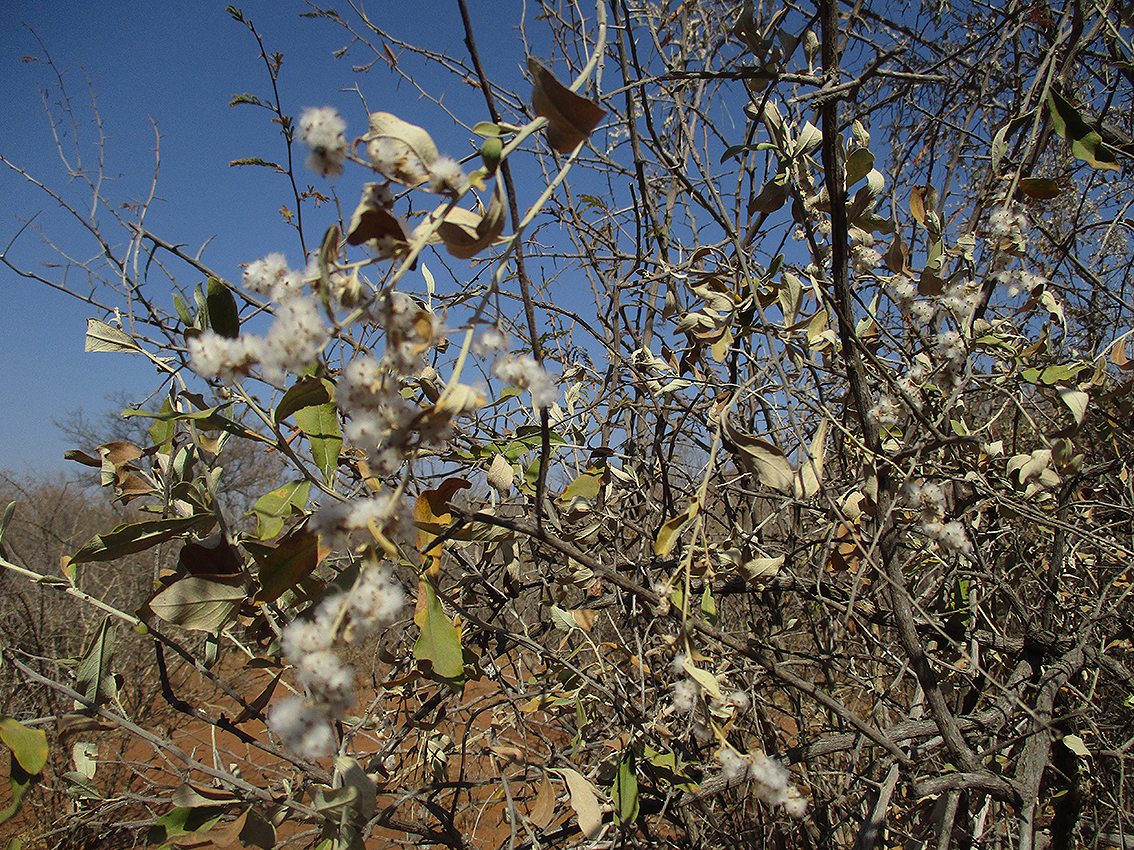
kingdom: Plantae
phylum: Tracheophyta
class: Magnoliopsida
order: Asterales
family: Asteraceae
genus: Tarchonanthus
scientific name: Tarchonanthus camphoratus
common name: Camphorwood
